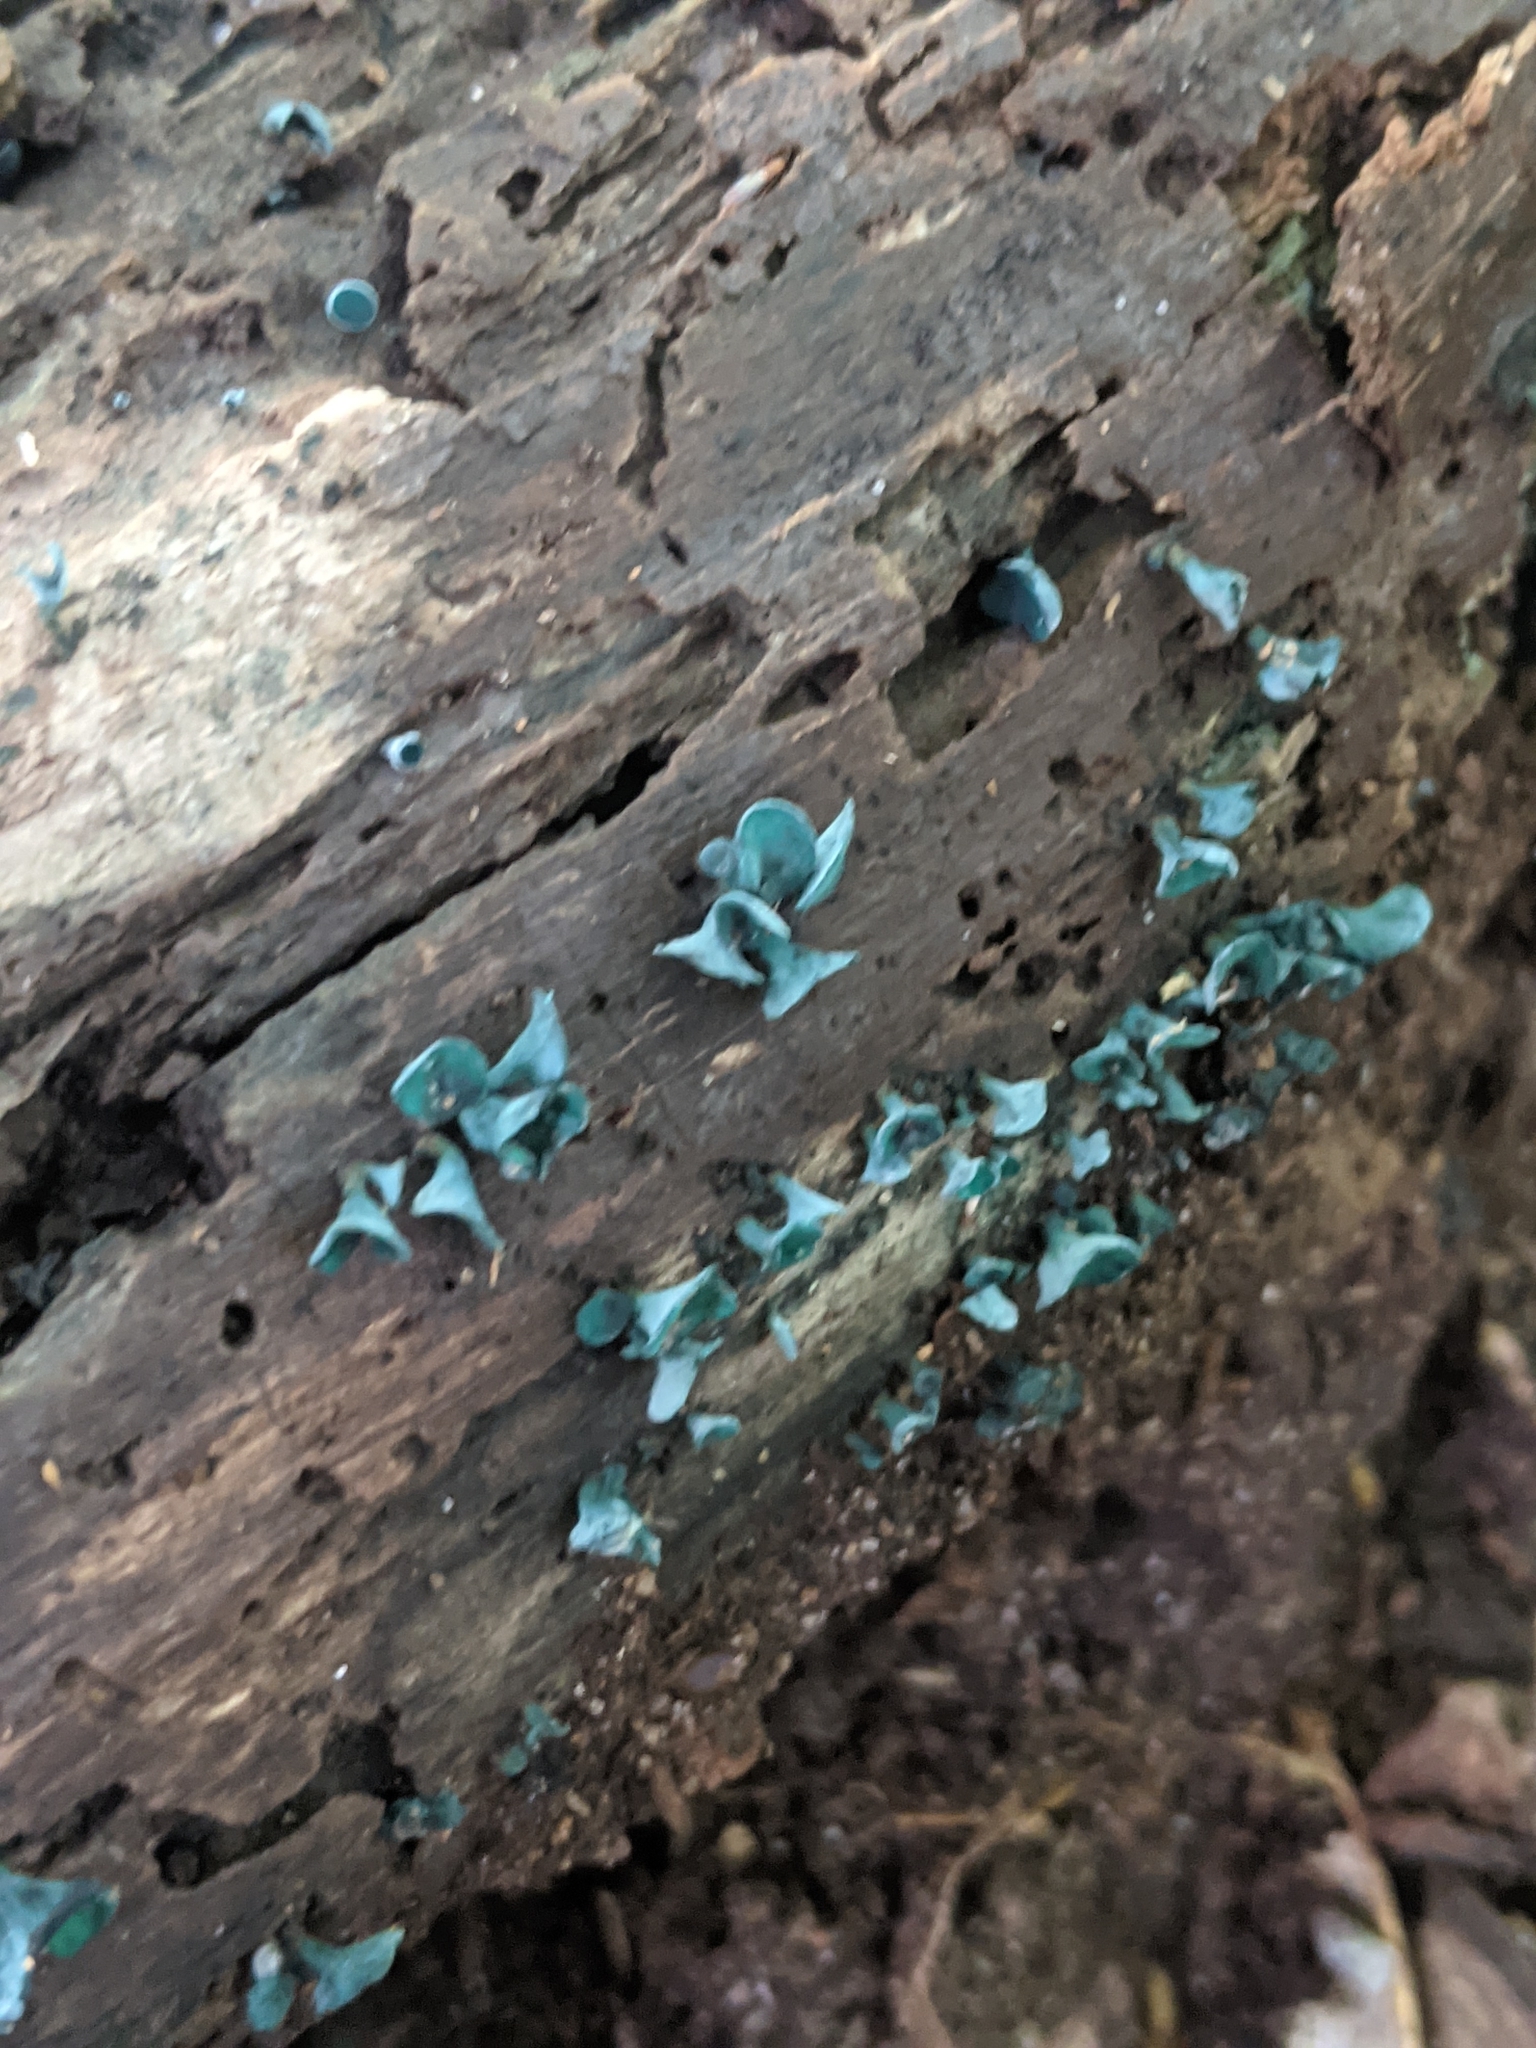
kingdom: Fungi
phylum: Ascomycota
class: Leotiomycetes
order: Helotiales
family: Chlorociboriaceae
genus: Chlorociboria
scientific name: Chlorociboria aeruginascens
